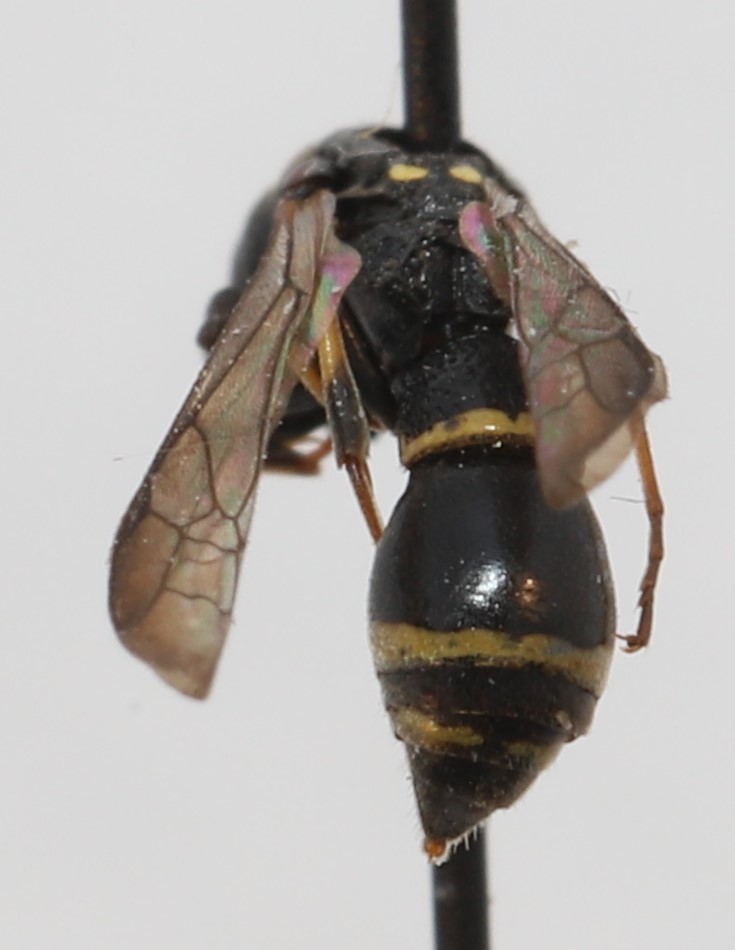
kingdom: Animalia
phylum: Arthropoda
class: Insecta
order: Hymenoptera
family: Eumenidae
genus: Symmorphus
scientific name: Symmorphus canadensis
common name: Canadian potter wasp
